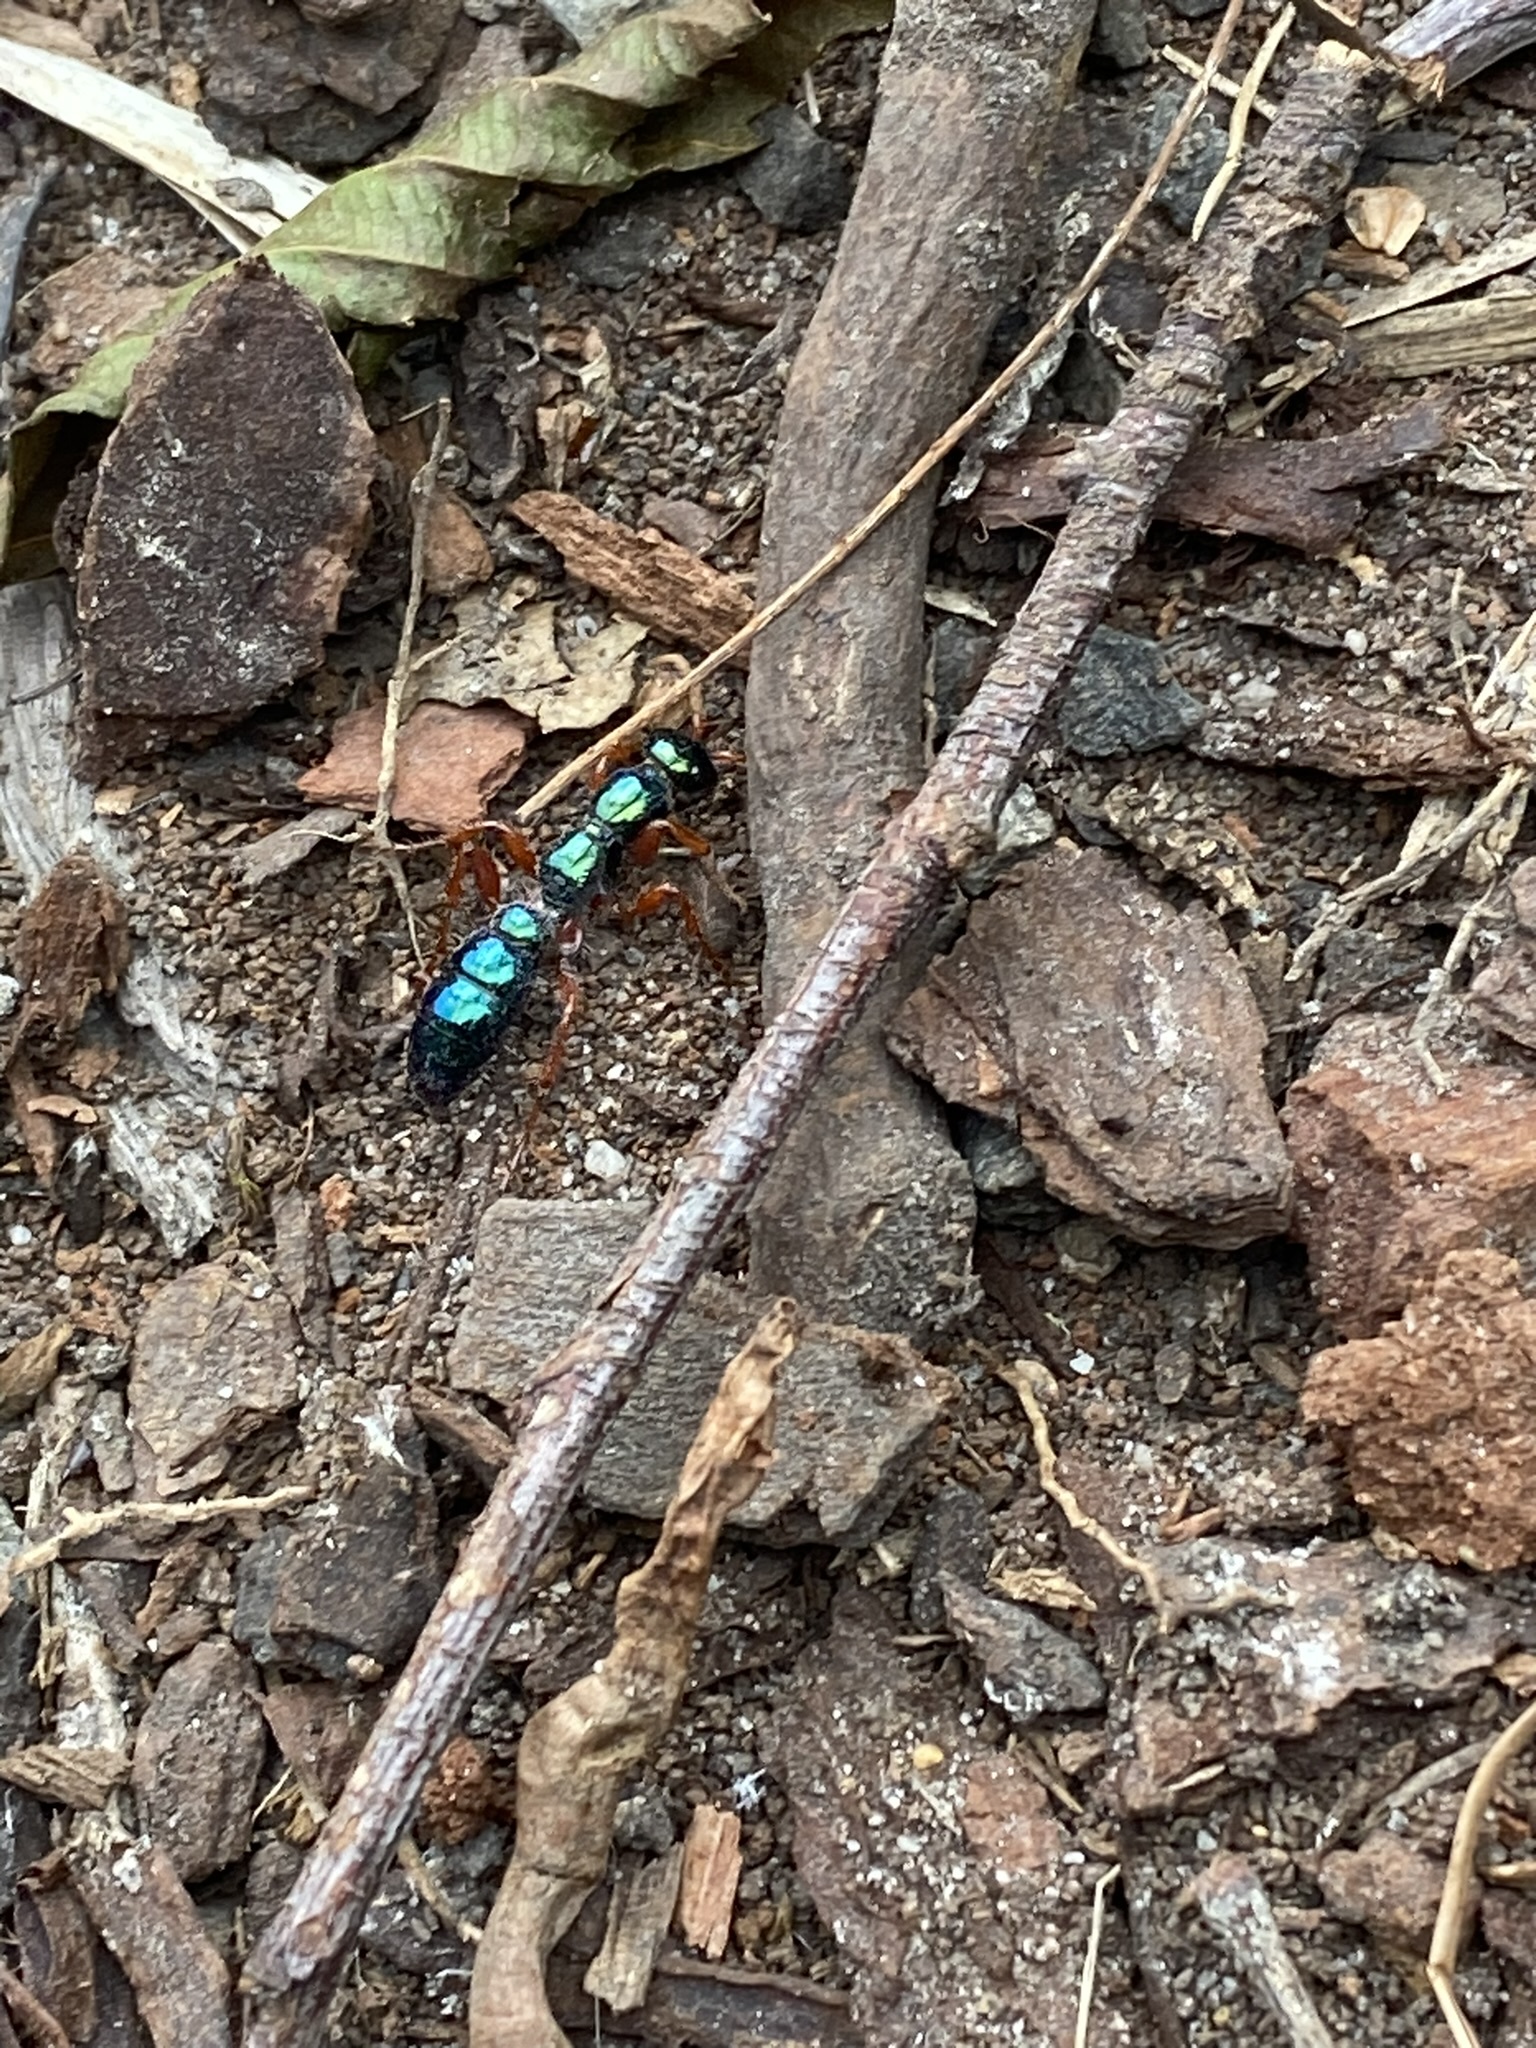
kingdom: Animalia
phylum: Arthropoda
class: Insecta
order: Hymenoptera
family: Tiphiidae
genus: Diamma
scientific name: Diamma
